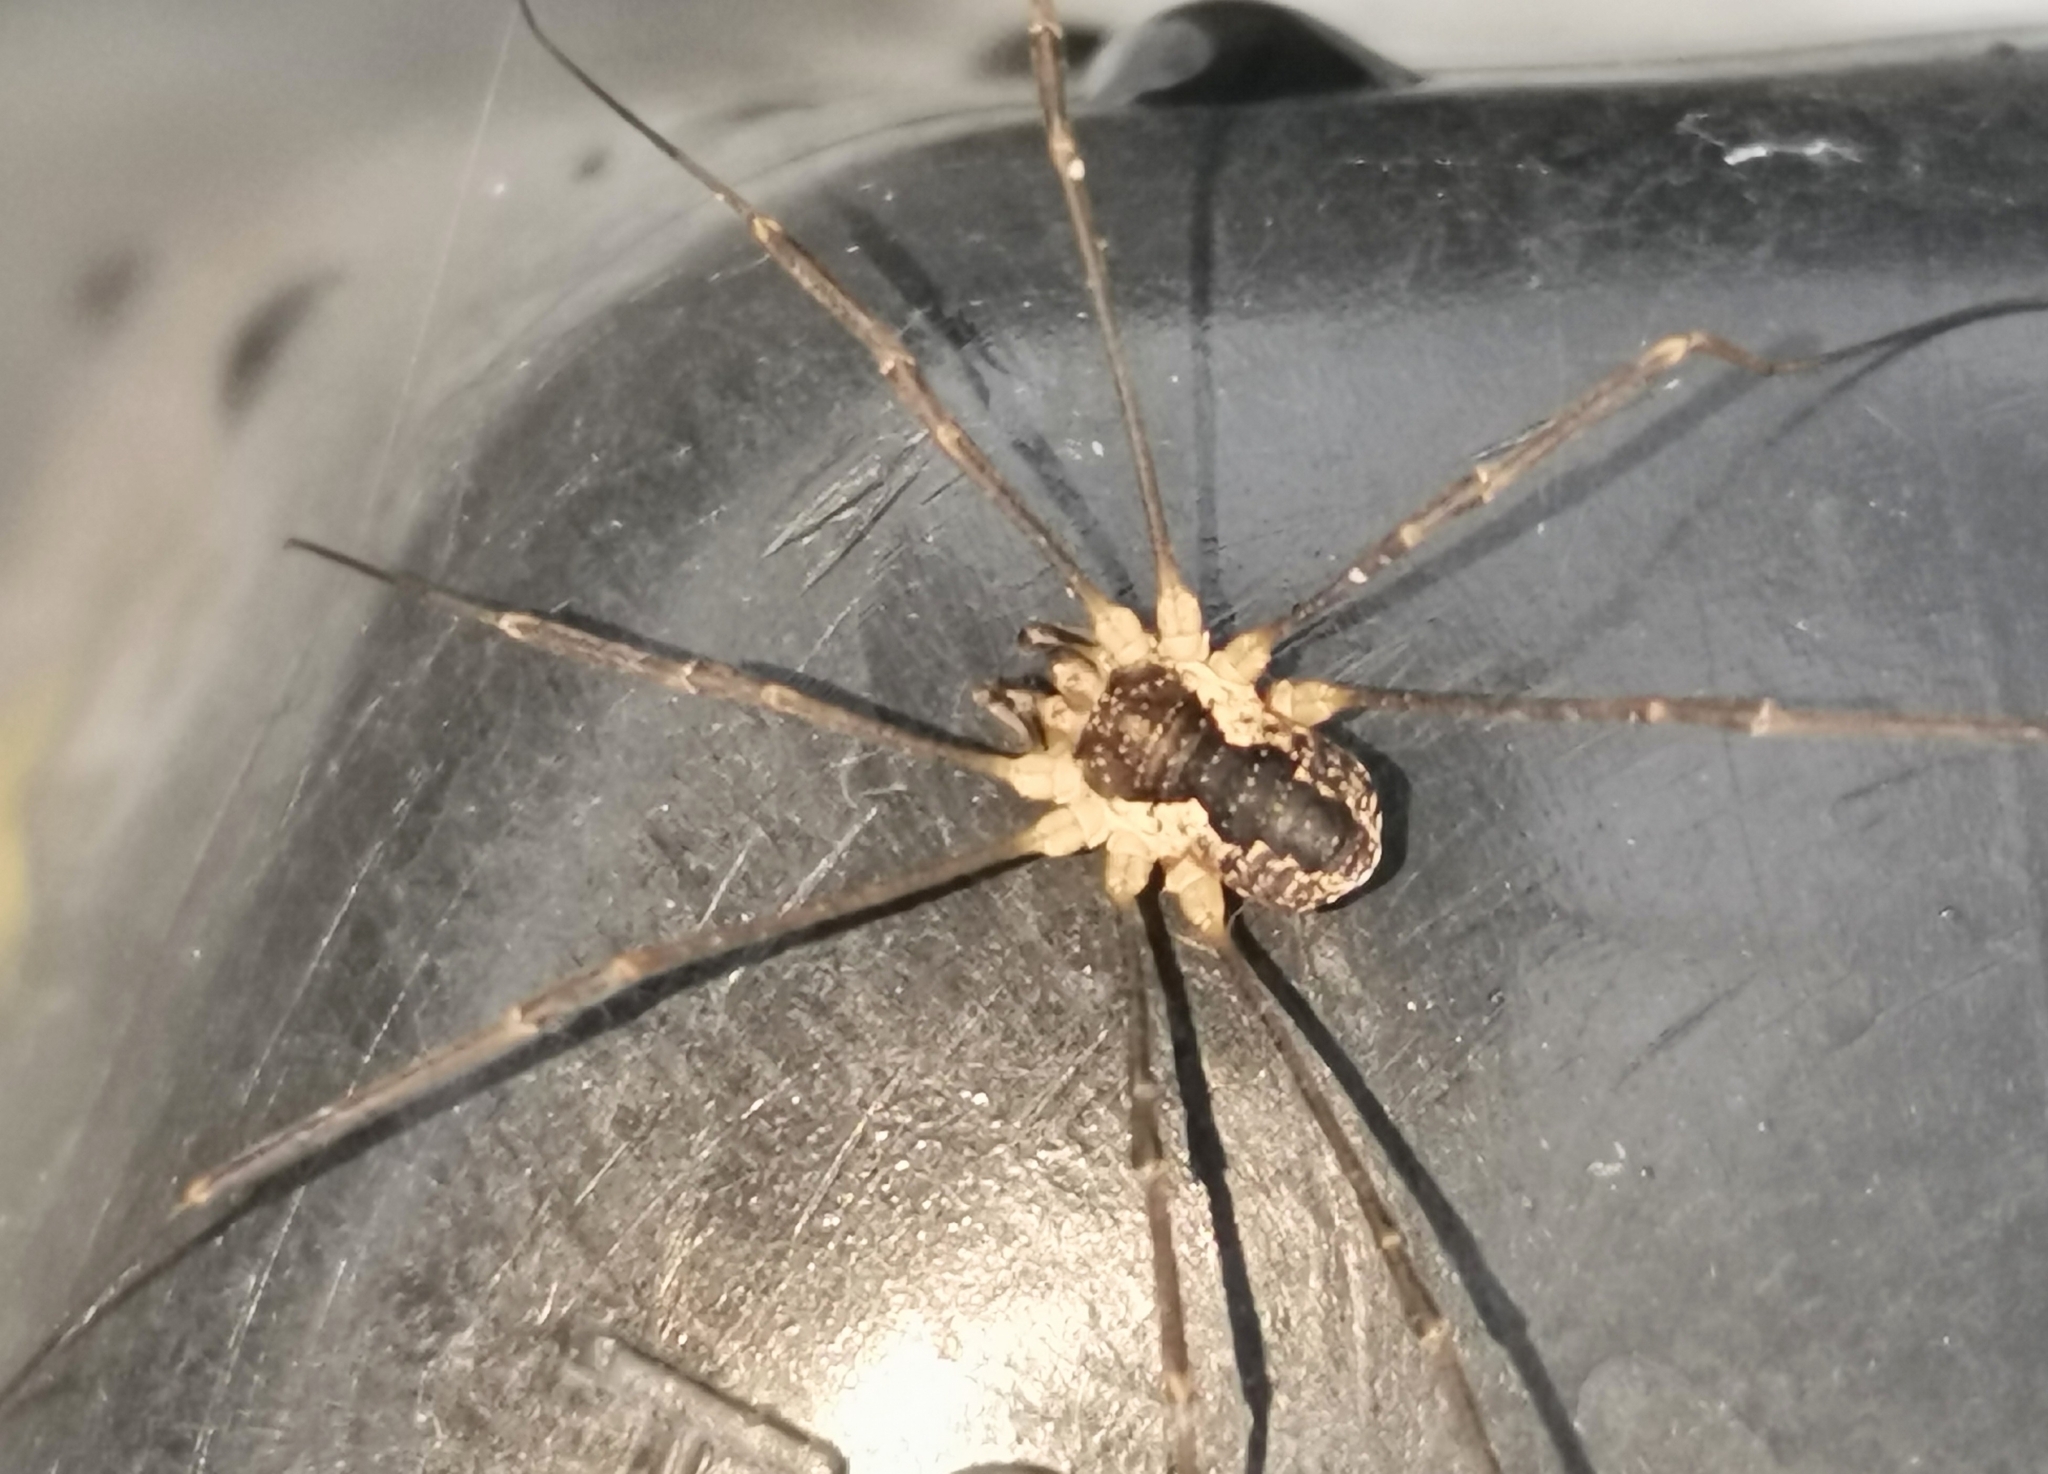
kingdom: Animalia
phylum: Arthropoda
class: Arachnida
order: Opiliones
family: Phalangiidae
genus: Mitopus
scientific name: Mitopus morio
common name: Saddleback harvestman
